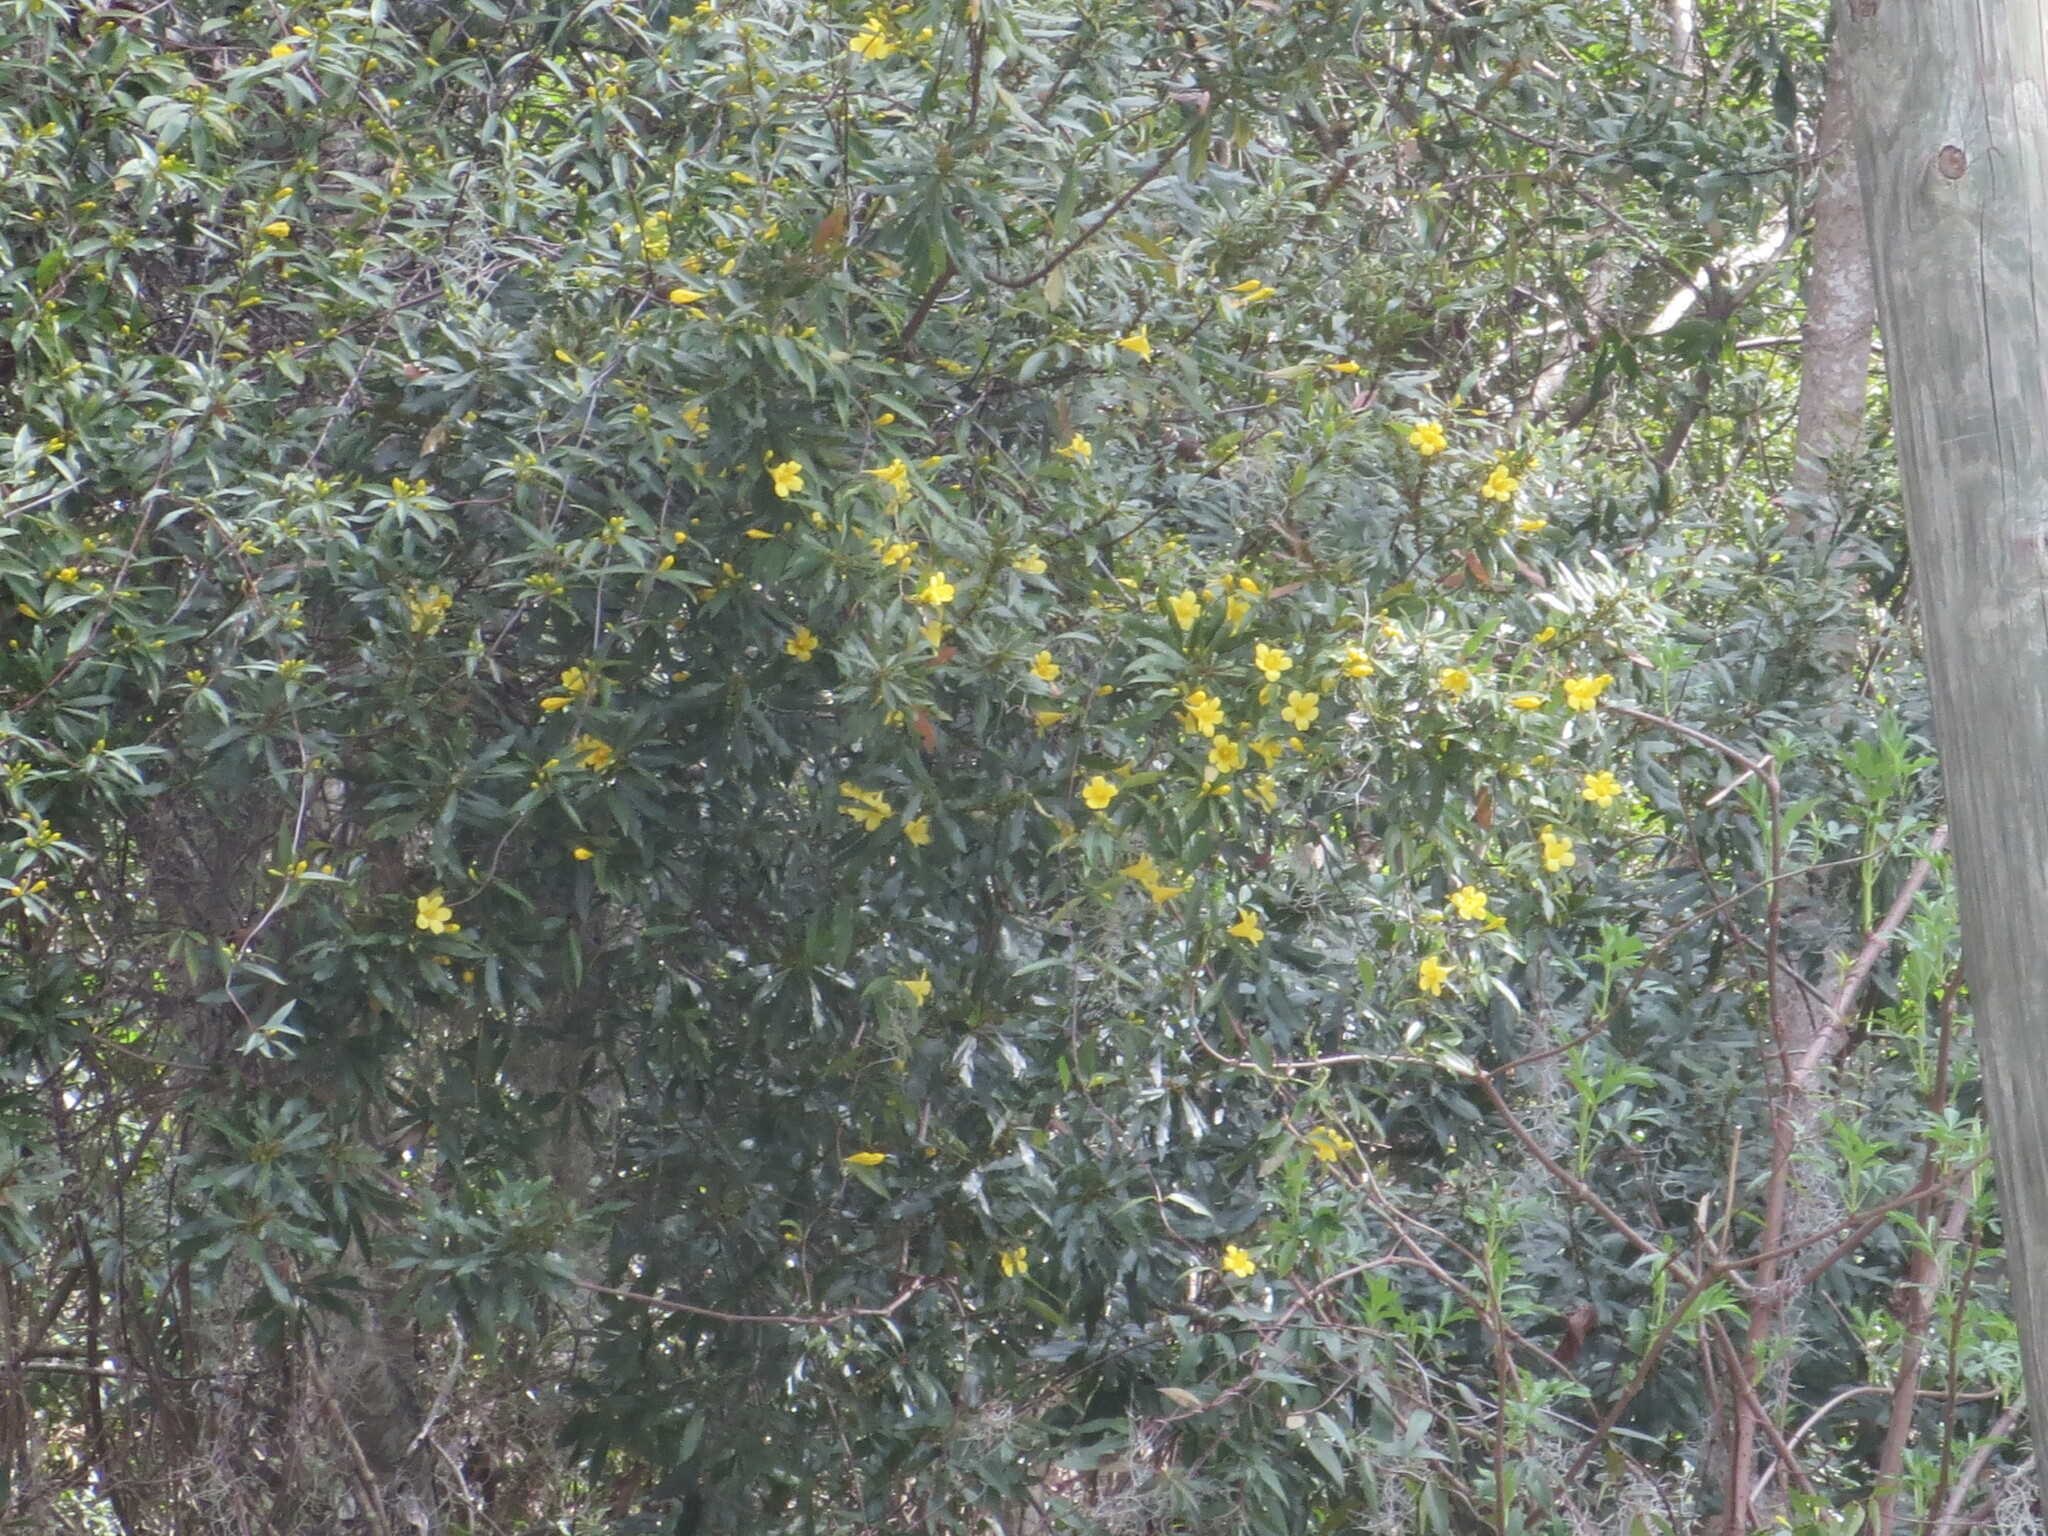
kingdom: Plantae
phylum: Tracheophyta
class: Magnoliopsida
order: Gentianales
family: Gelsemiaceae
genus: Gelsemium
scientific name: Gelsemium sempervirens
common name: Carolina-jasmine
